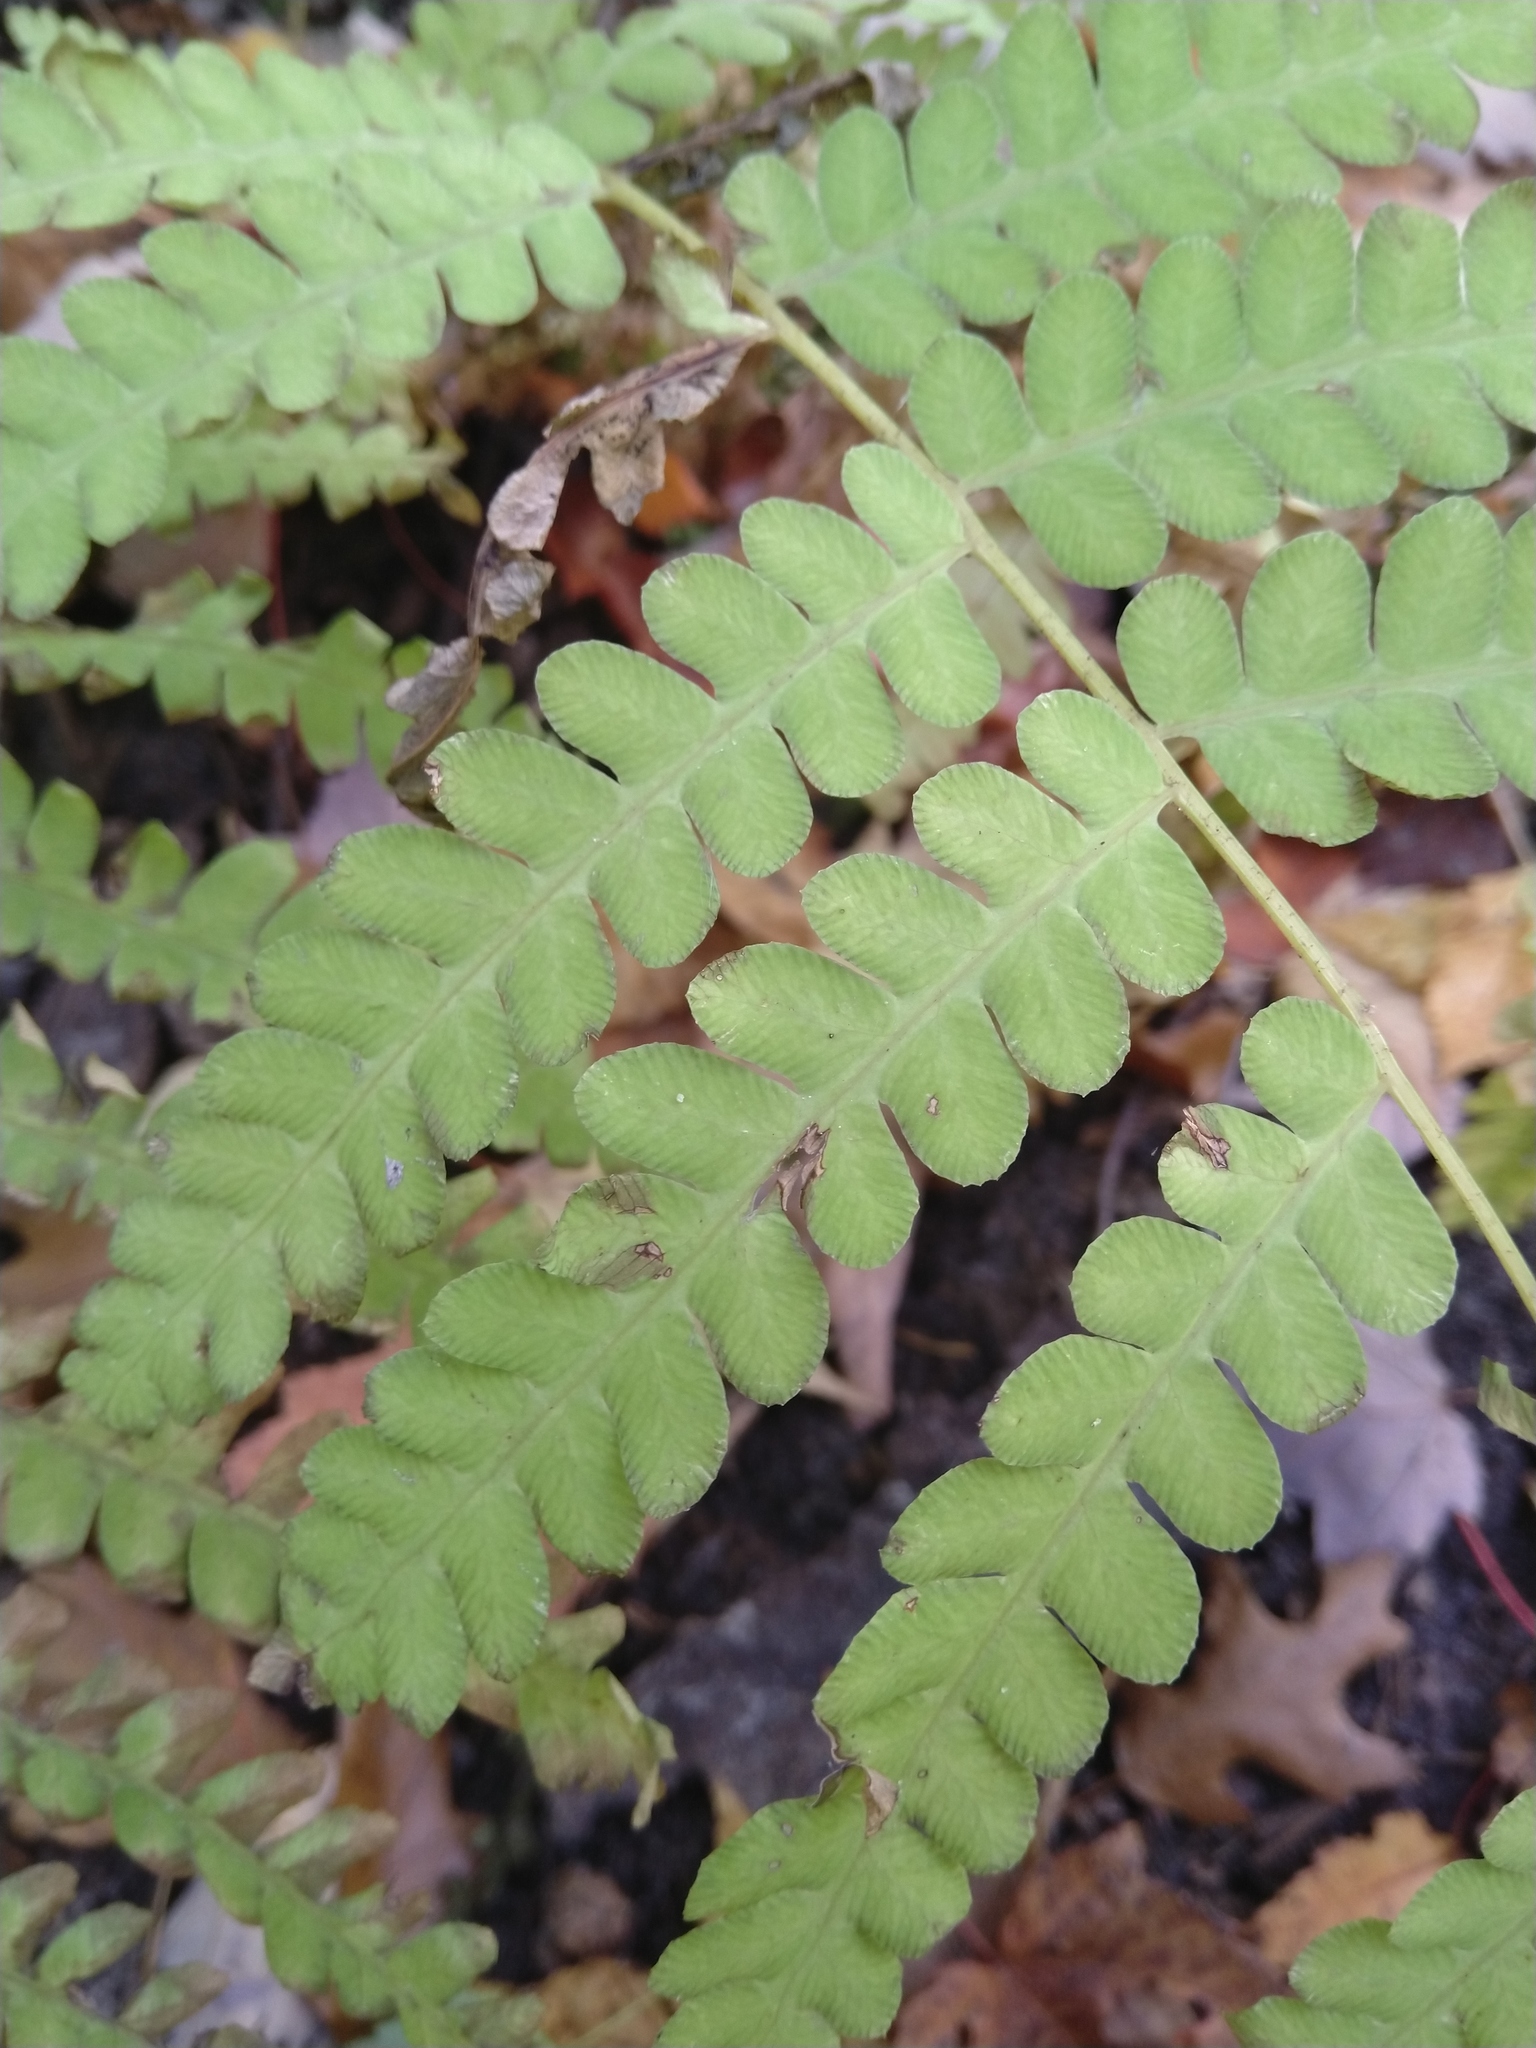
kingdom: Plantae
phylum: Tracheophyta
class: Polypodiopsida
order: Osmundales
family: Osmundaceae
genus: Claytosmunda
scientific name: Claytosmunda claytoniana
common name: Clayton's fern
